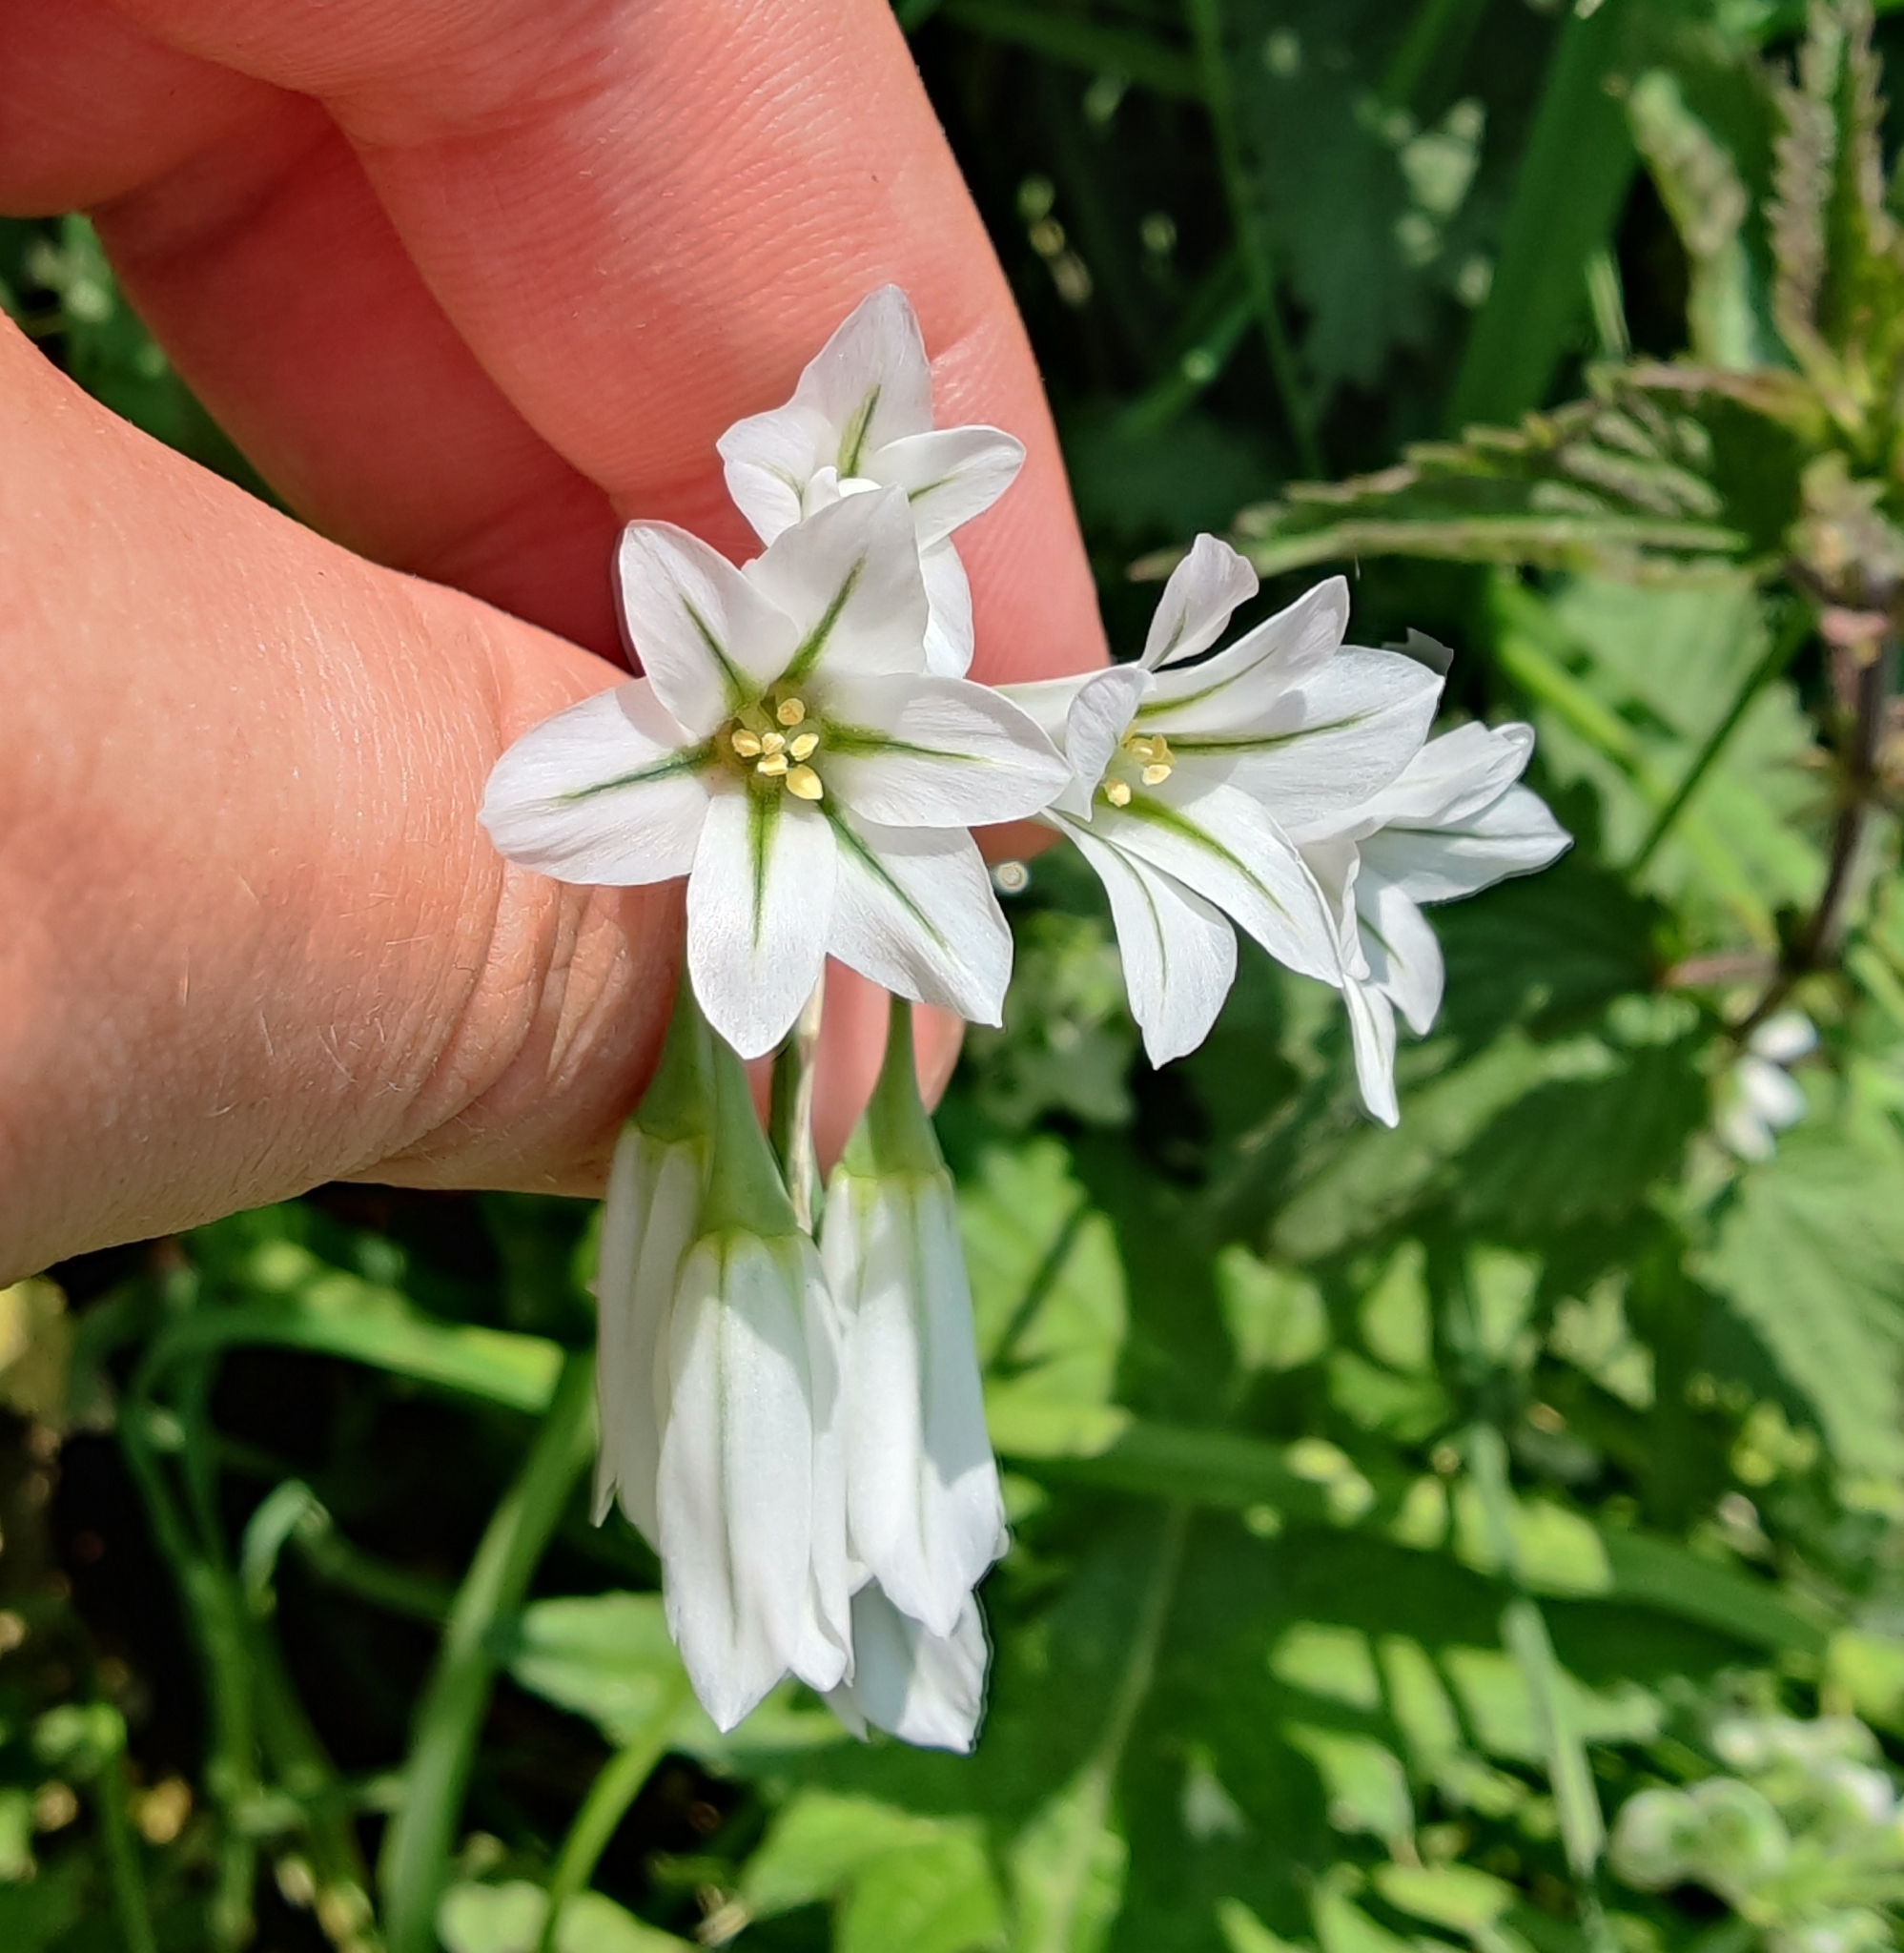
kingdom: Plantae
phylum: Tracheophyta
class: Liliopsida
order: Asparagales
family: Amaryllidaceae
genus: Allium
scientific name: Allium triquetrum
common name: Three-cornered garlic
